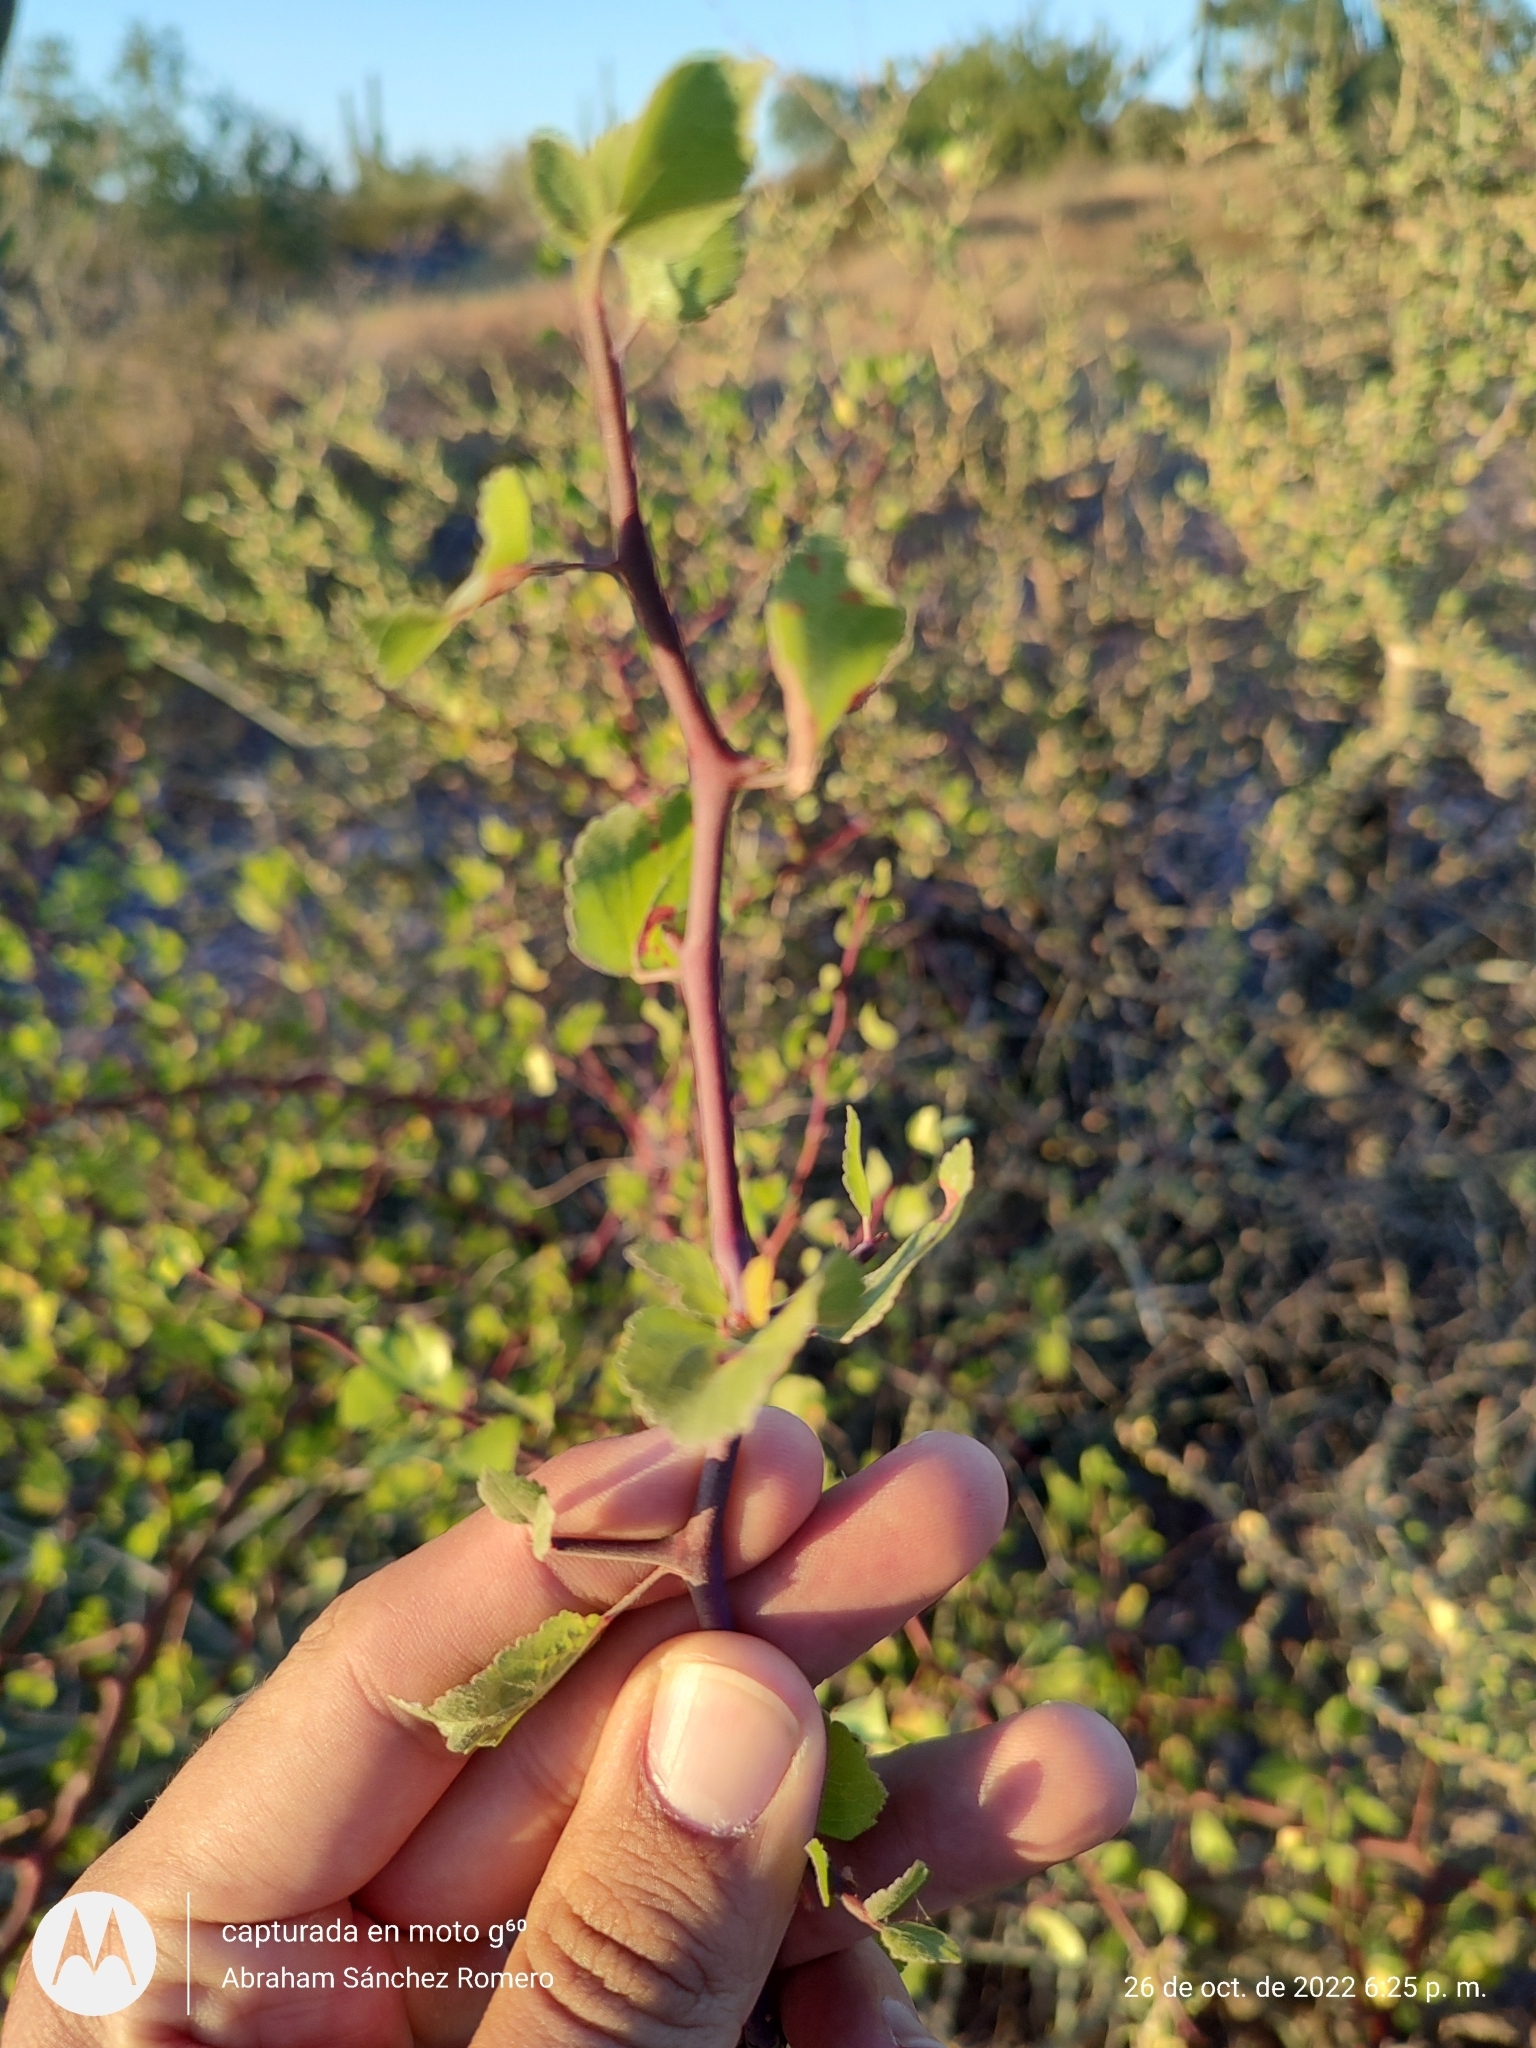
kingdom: Plantae
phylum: Tracheophyta
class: Magnoliopsida
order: Sapindales
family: Burseraceae
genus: Bursera
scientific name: Bursera epinnata
